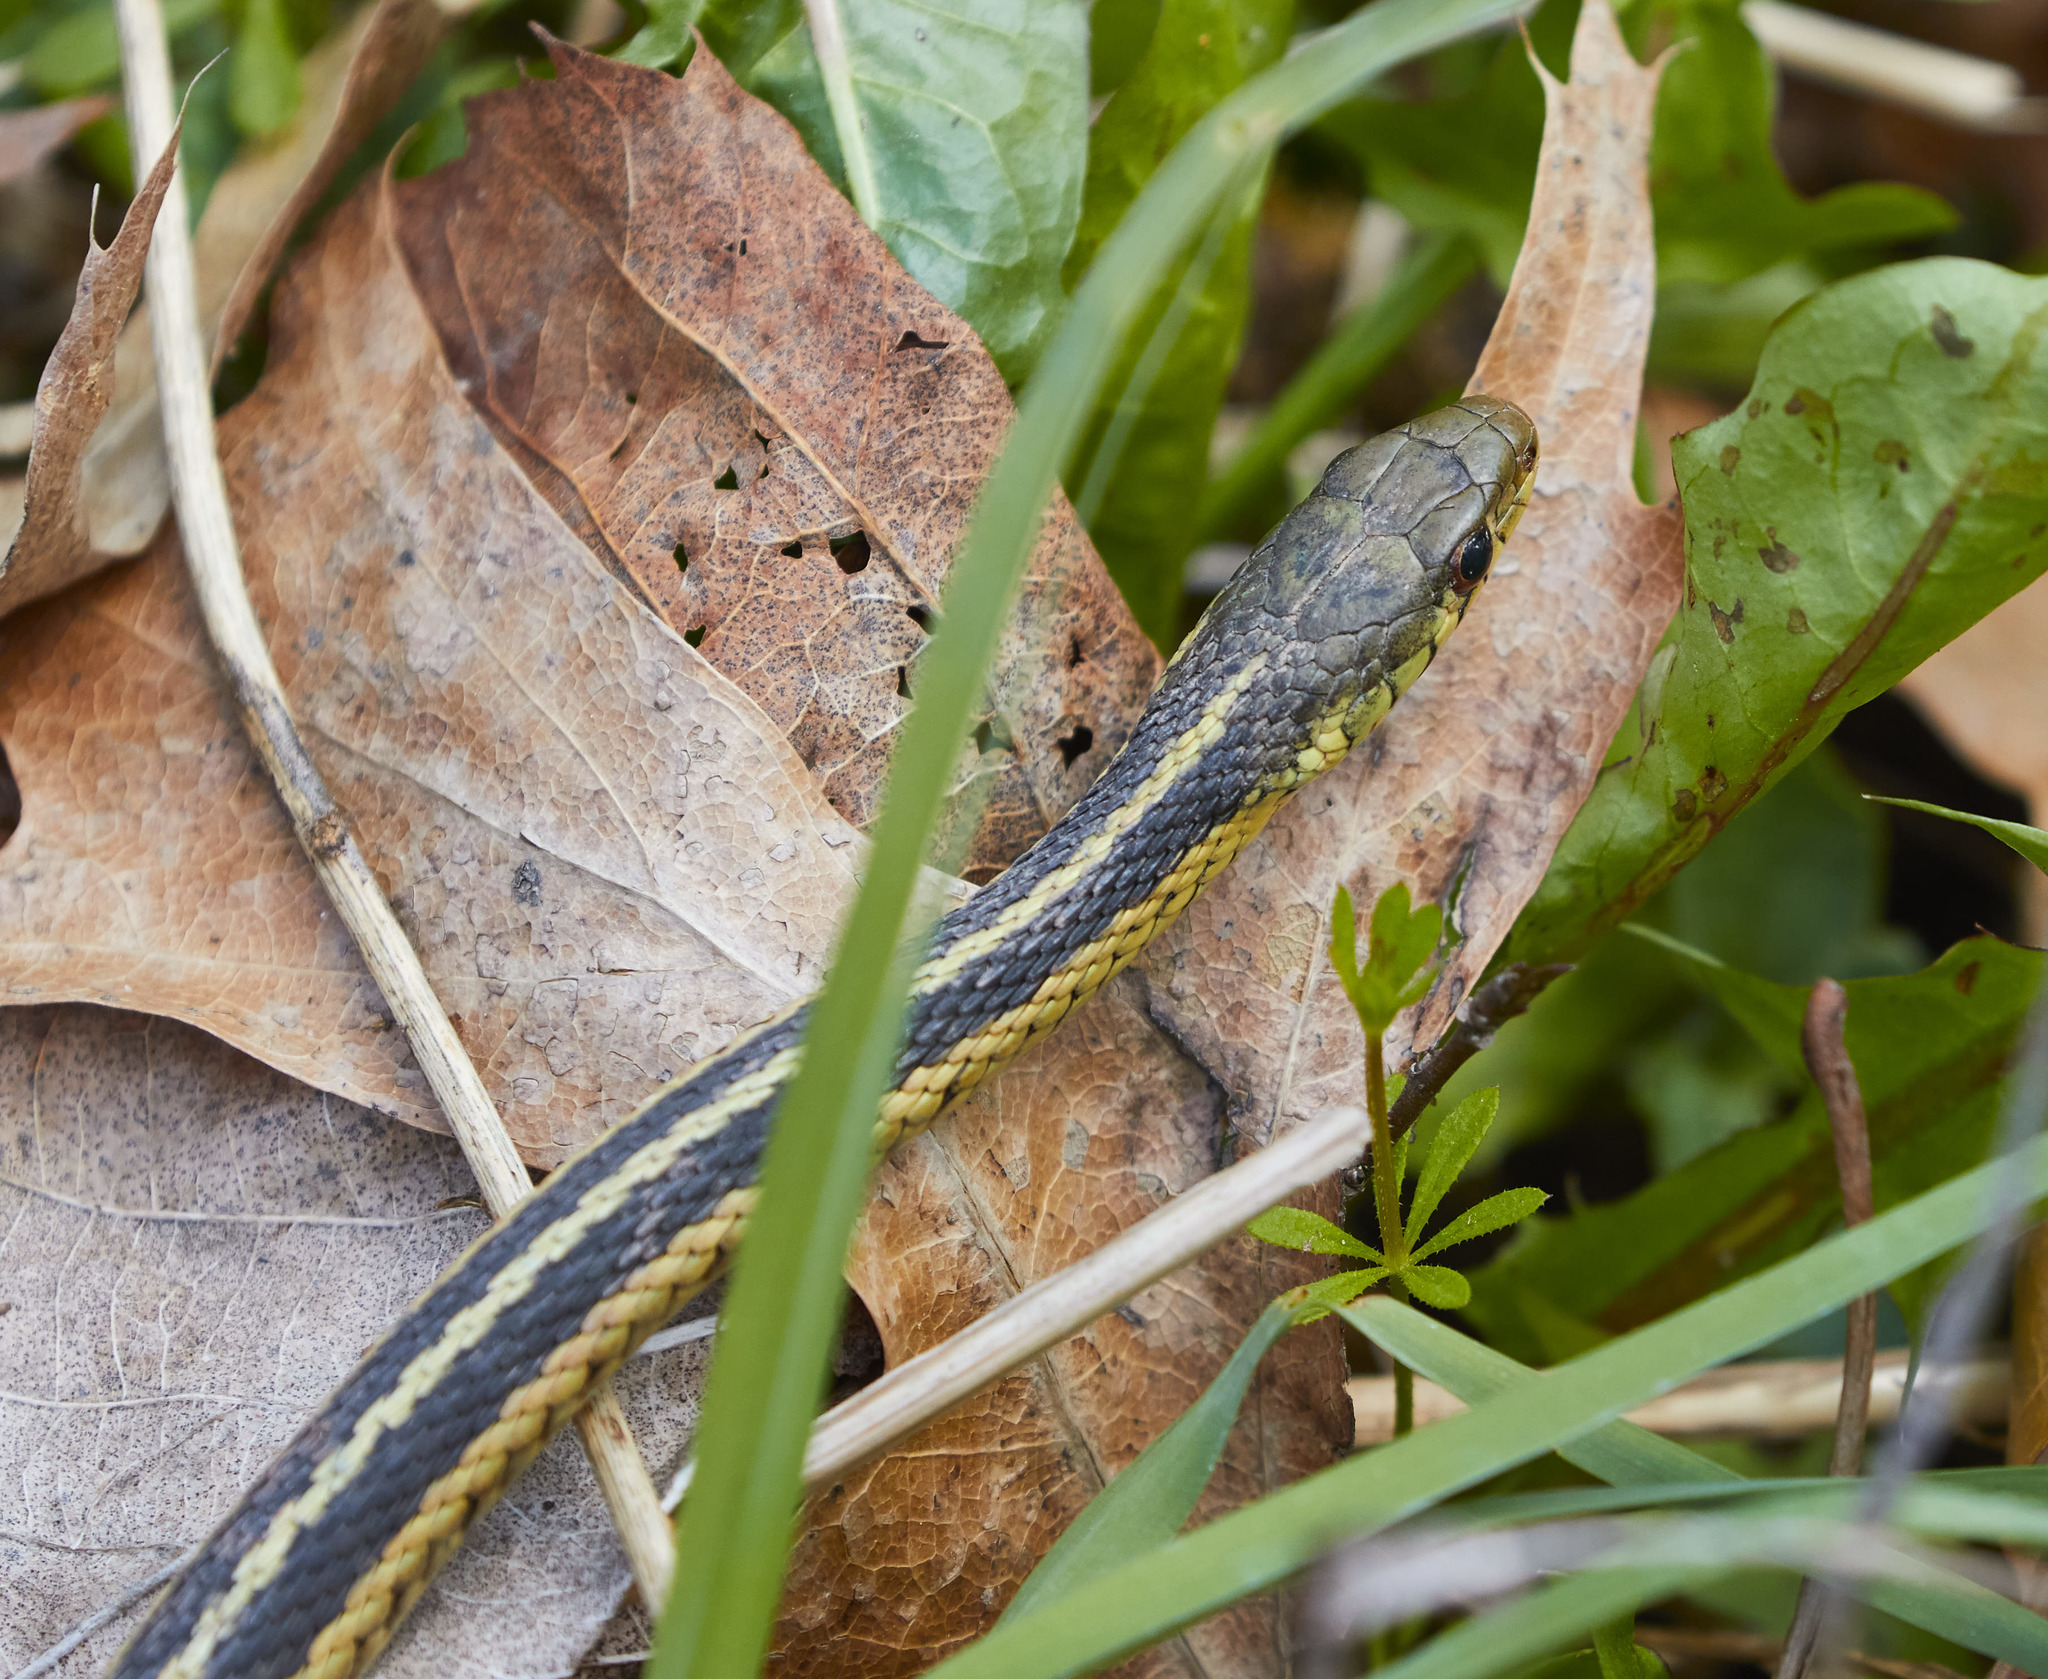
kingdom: Animalia
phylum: Chordata
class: Squamata
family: Colubridae
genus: Thamnophis
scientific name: Thamnophis sirtalis
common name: Common garter snake
